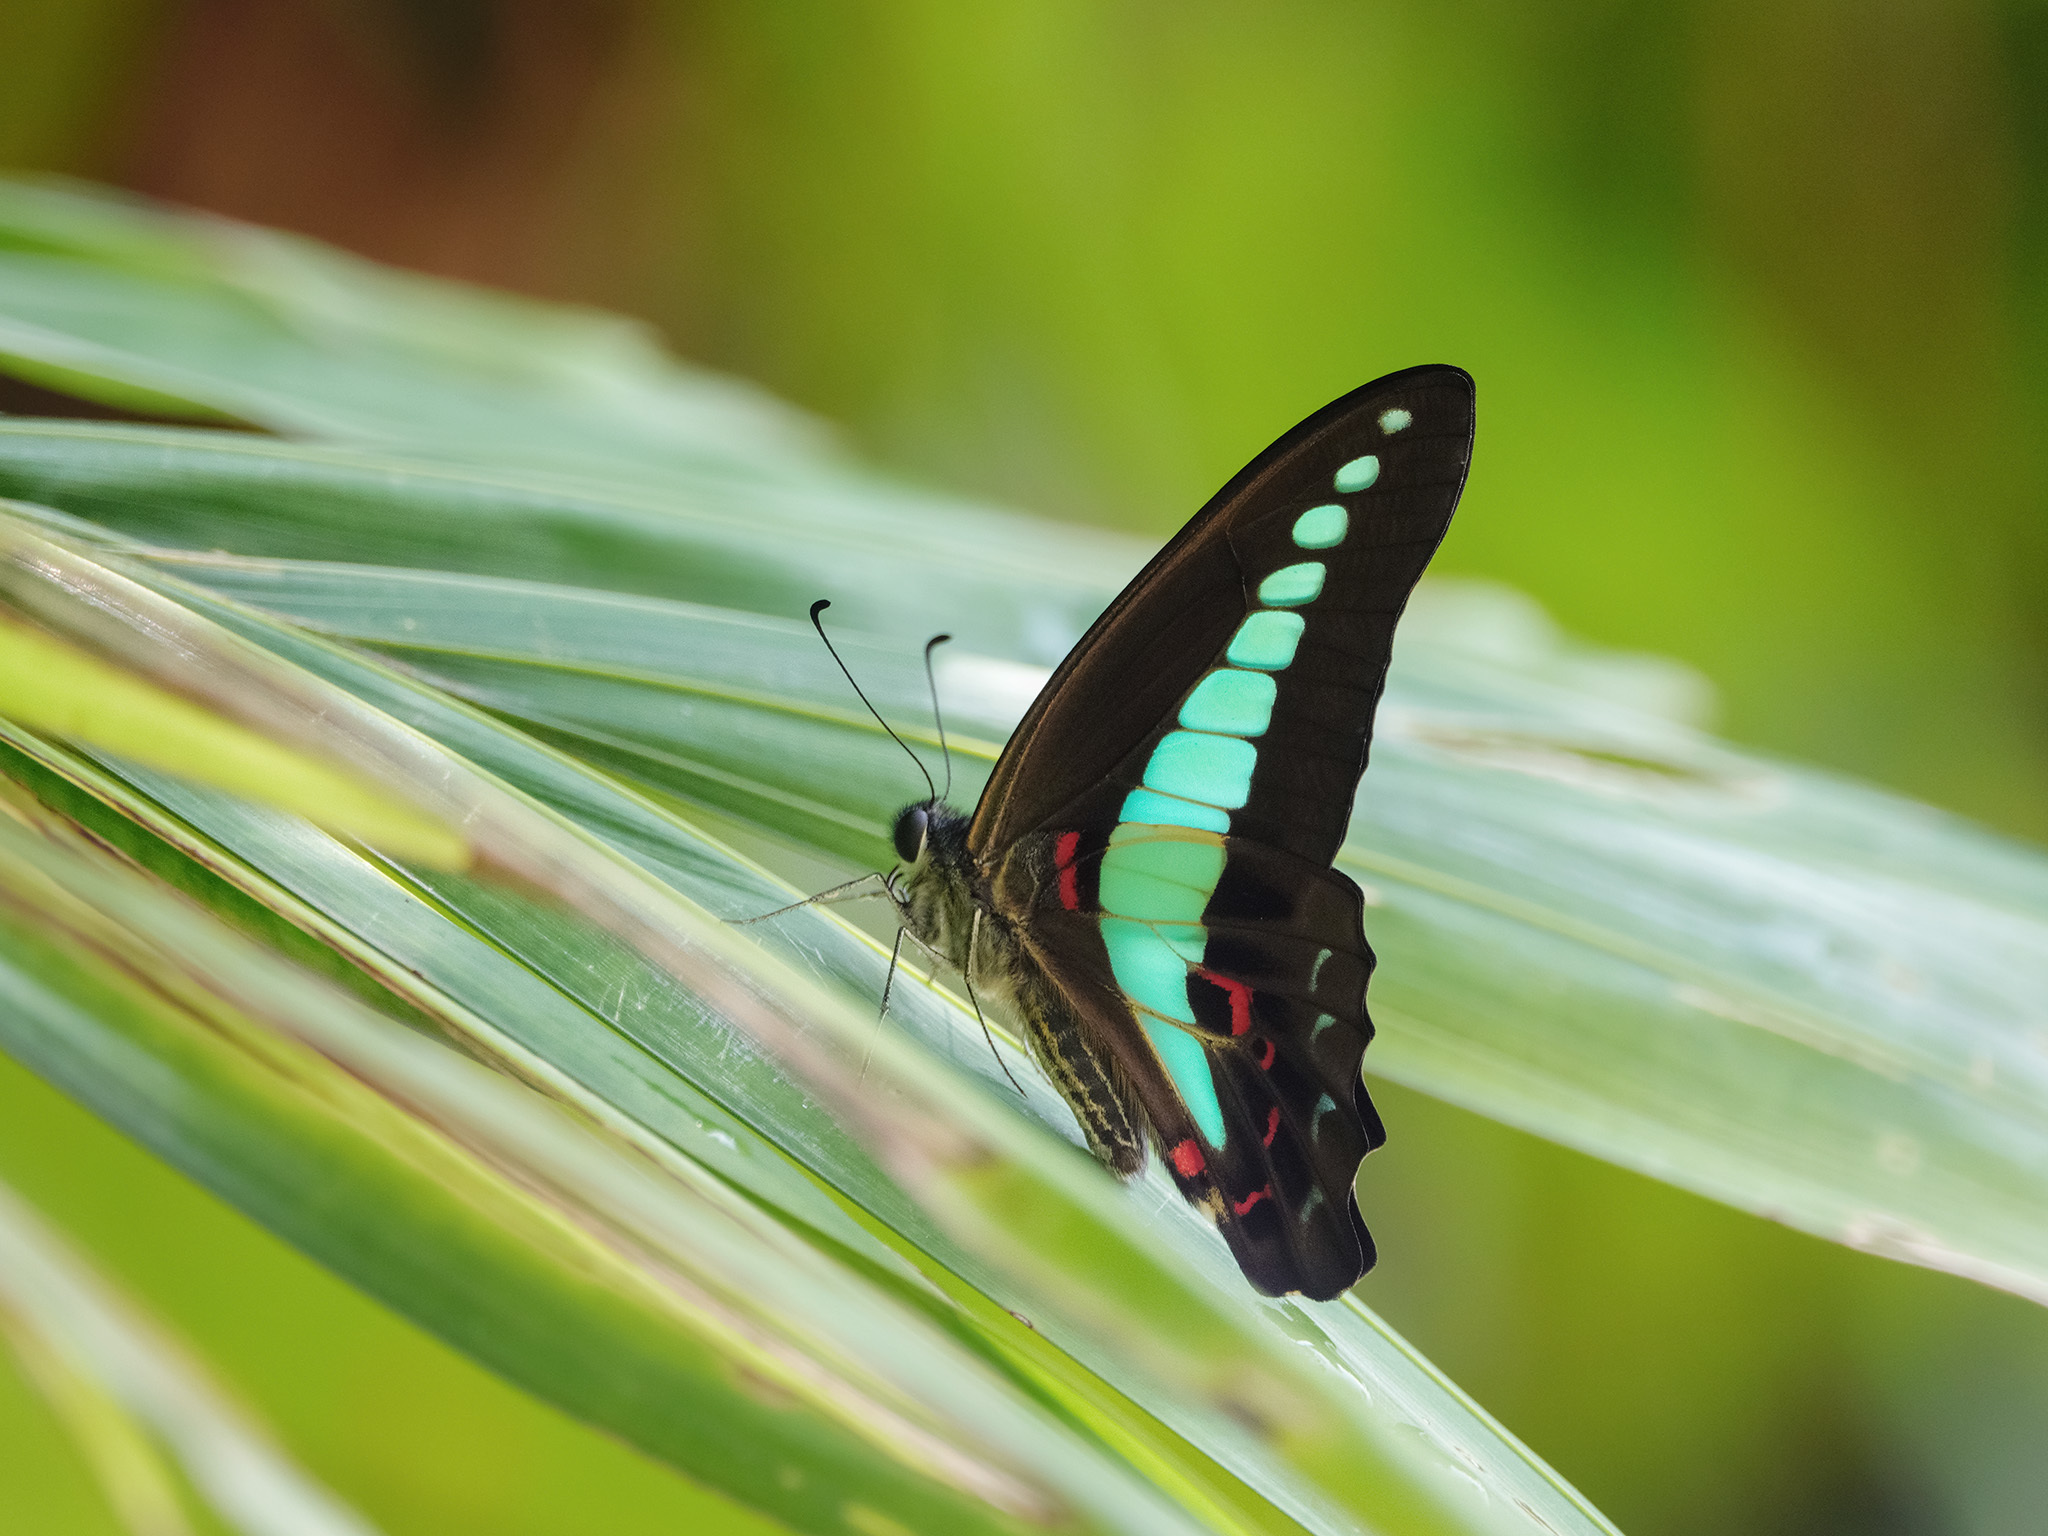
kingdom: Fungi
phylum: Ascomycota
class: Sordariomycetes
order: Microascales
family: Microascaceae
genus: Graphium
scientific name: Graphium sarpedon
